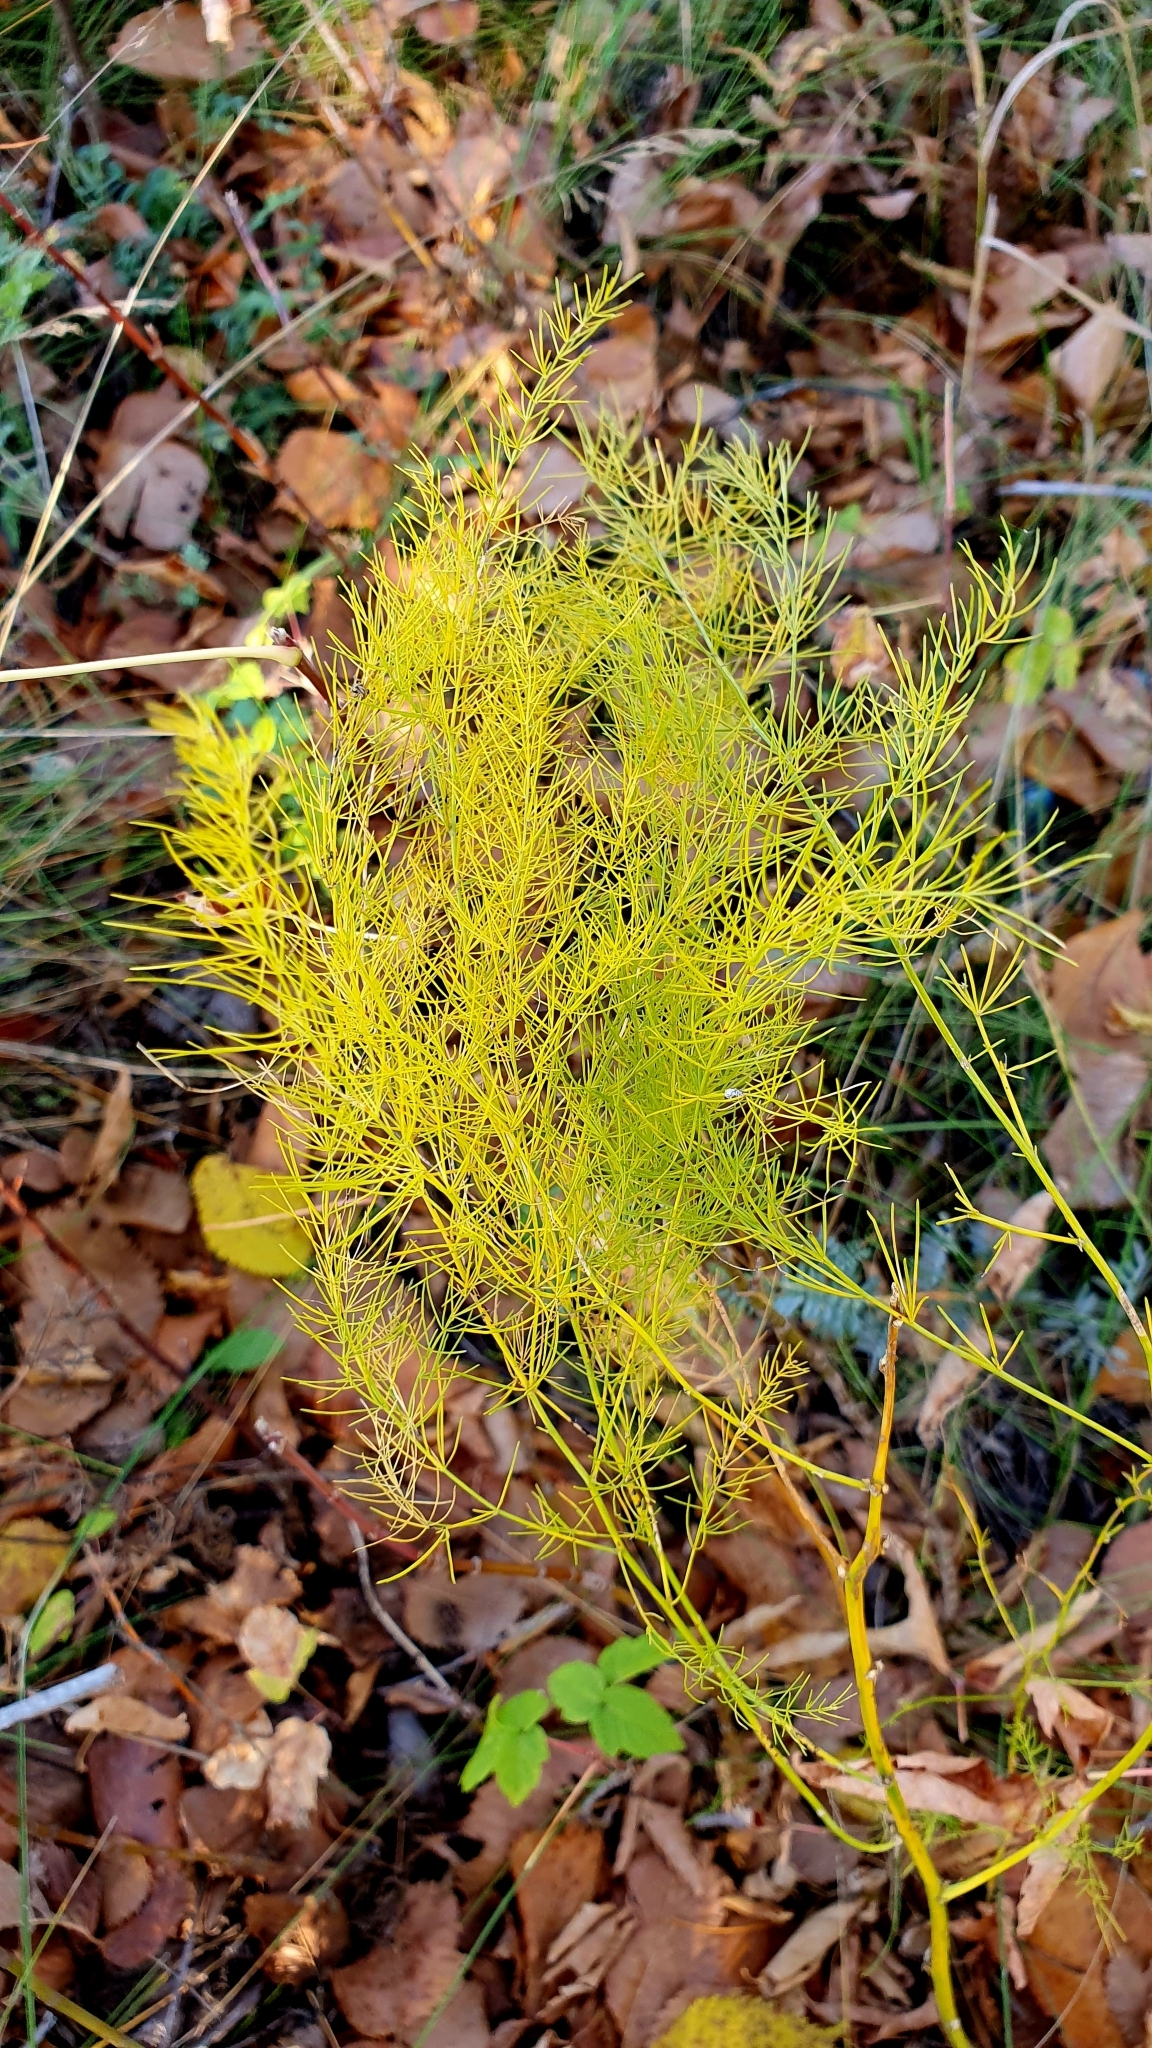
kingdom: Plantae
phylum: Tracheophyta
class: Liliopsida
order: Asparagales
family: Asparagaceae
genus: Asparagus
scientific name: Asparagus officinalis
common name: Garden asparagus
